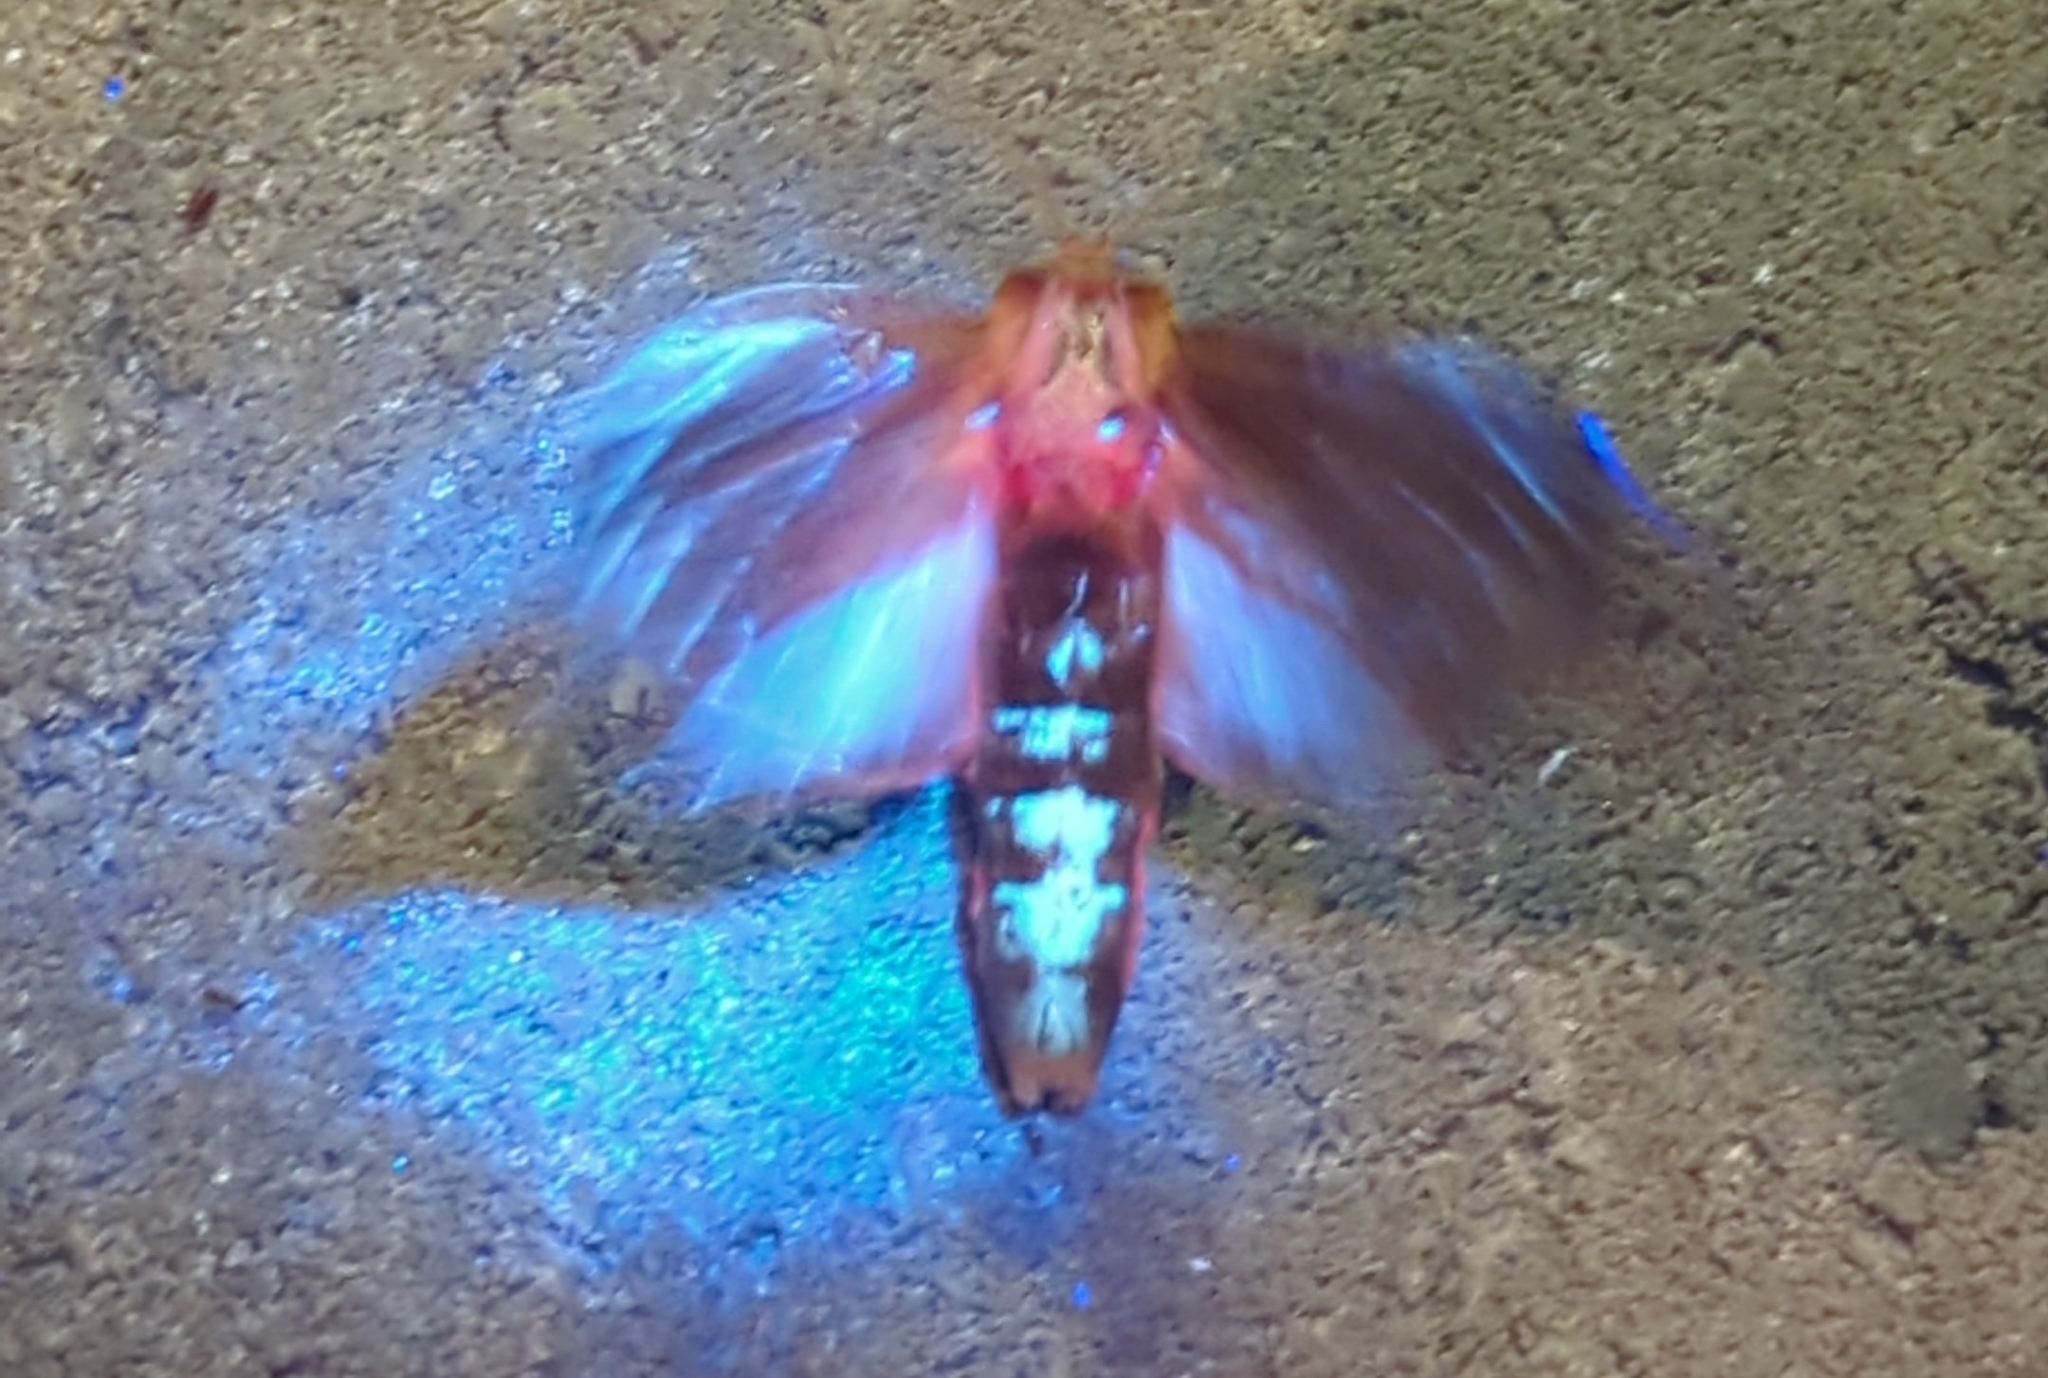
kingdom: Animalia
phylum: Arthropoda
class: Insecta
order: Lepidoptera
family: Erebidae
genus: Ammalo
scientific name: Ammalo helops
